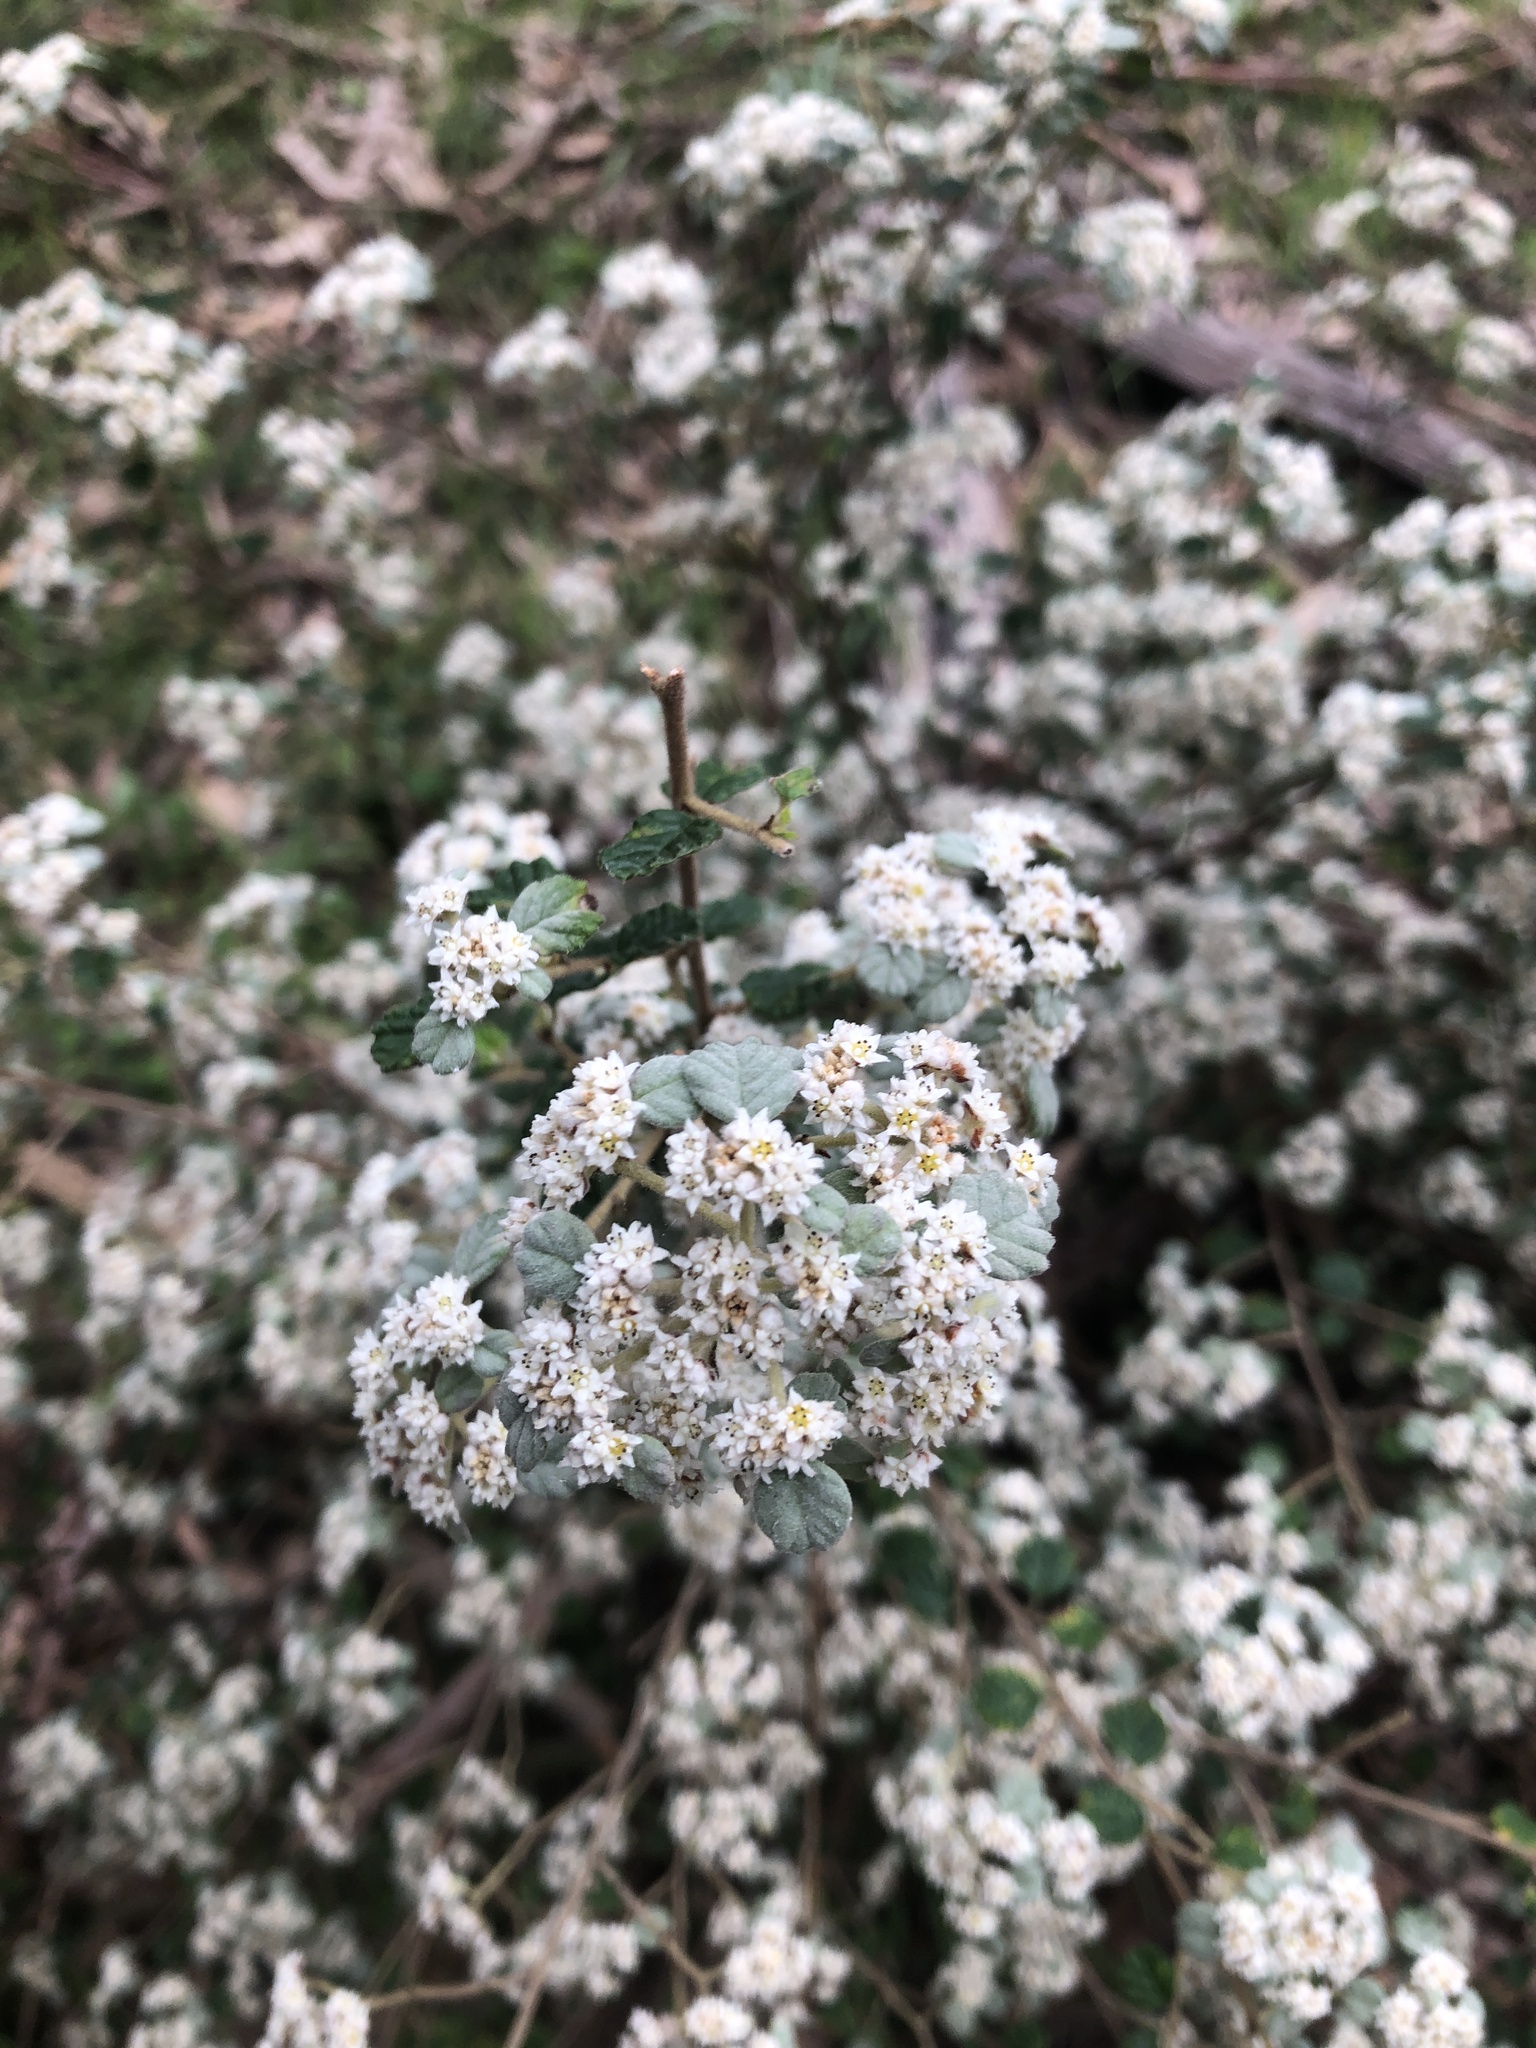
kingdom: Plantae
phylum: Tracheophyta
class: Magnoliopsida
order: Rosales
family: Rhamnaceae
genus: Spyridium
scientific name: Spyridium parvifolium
